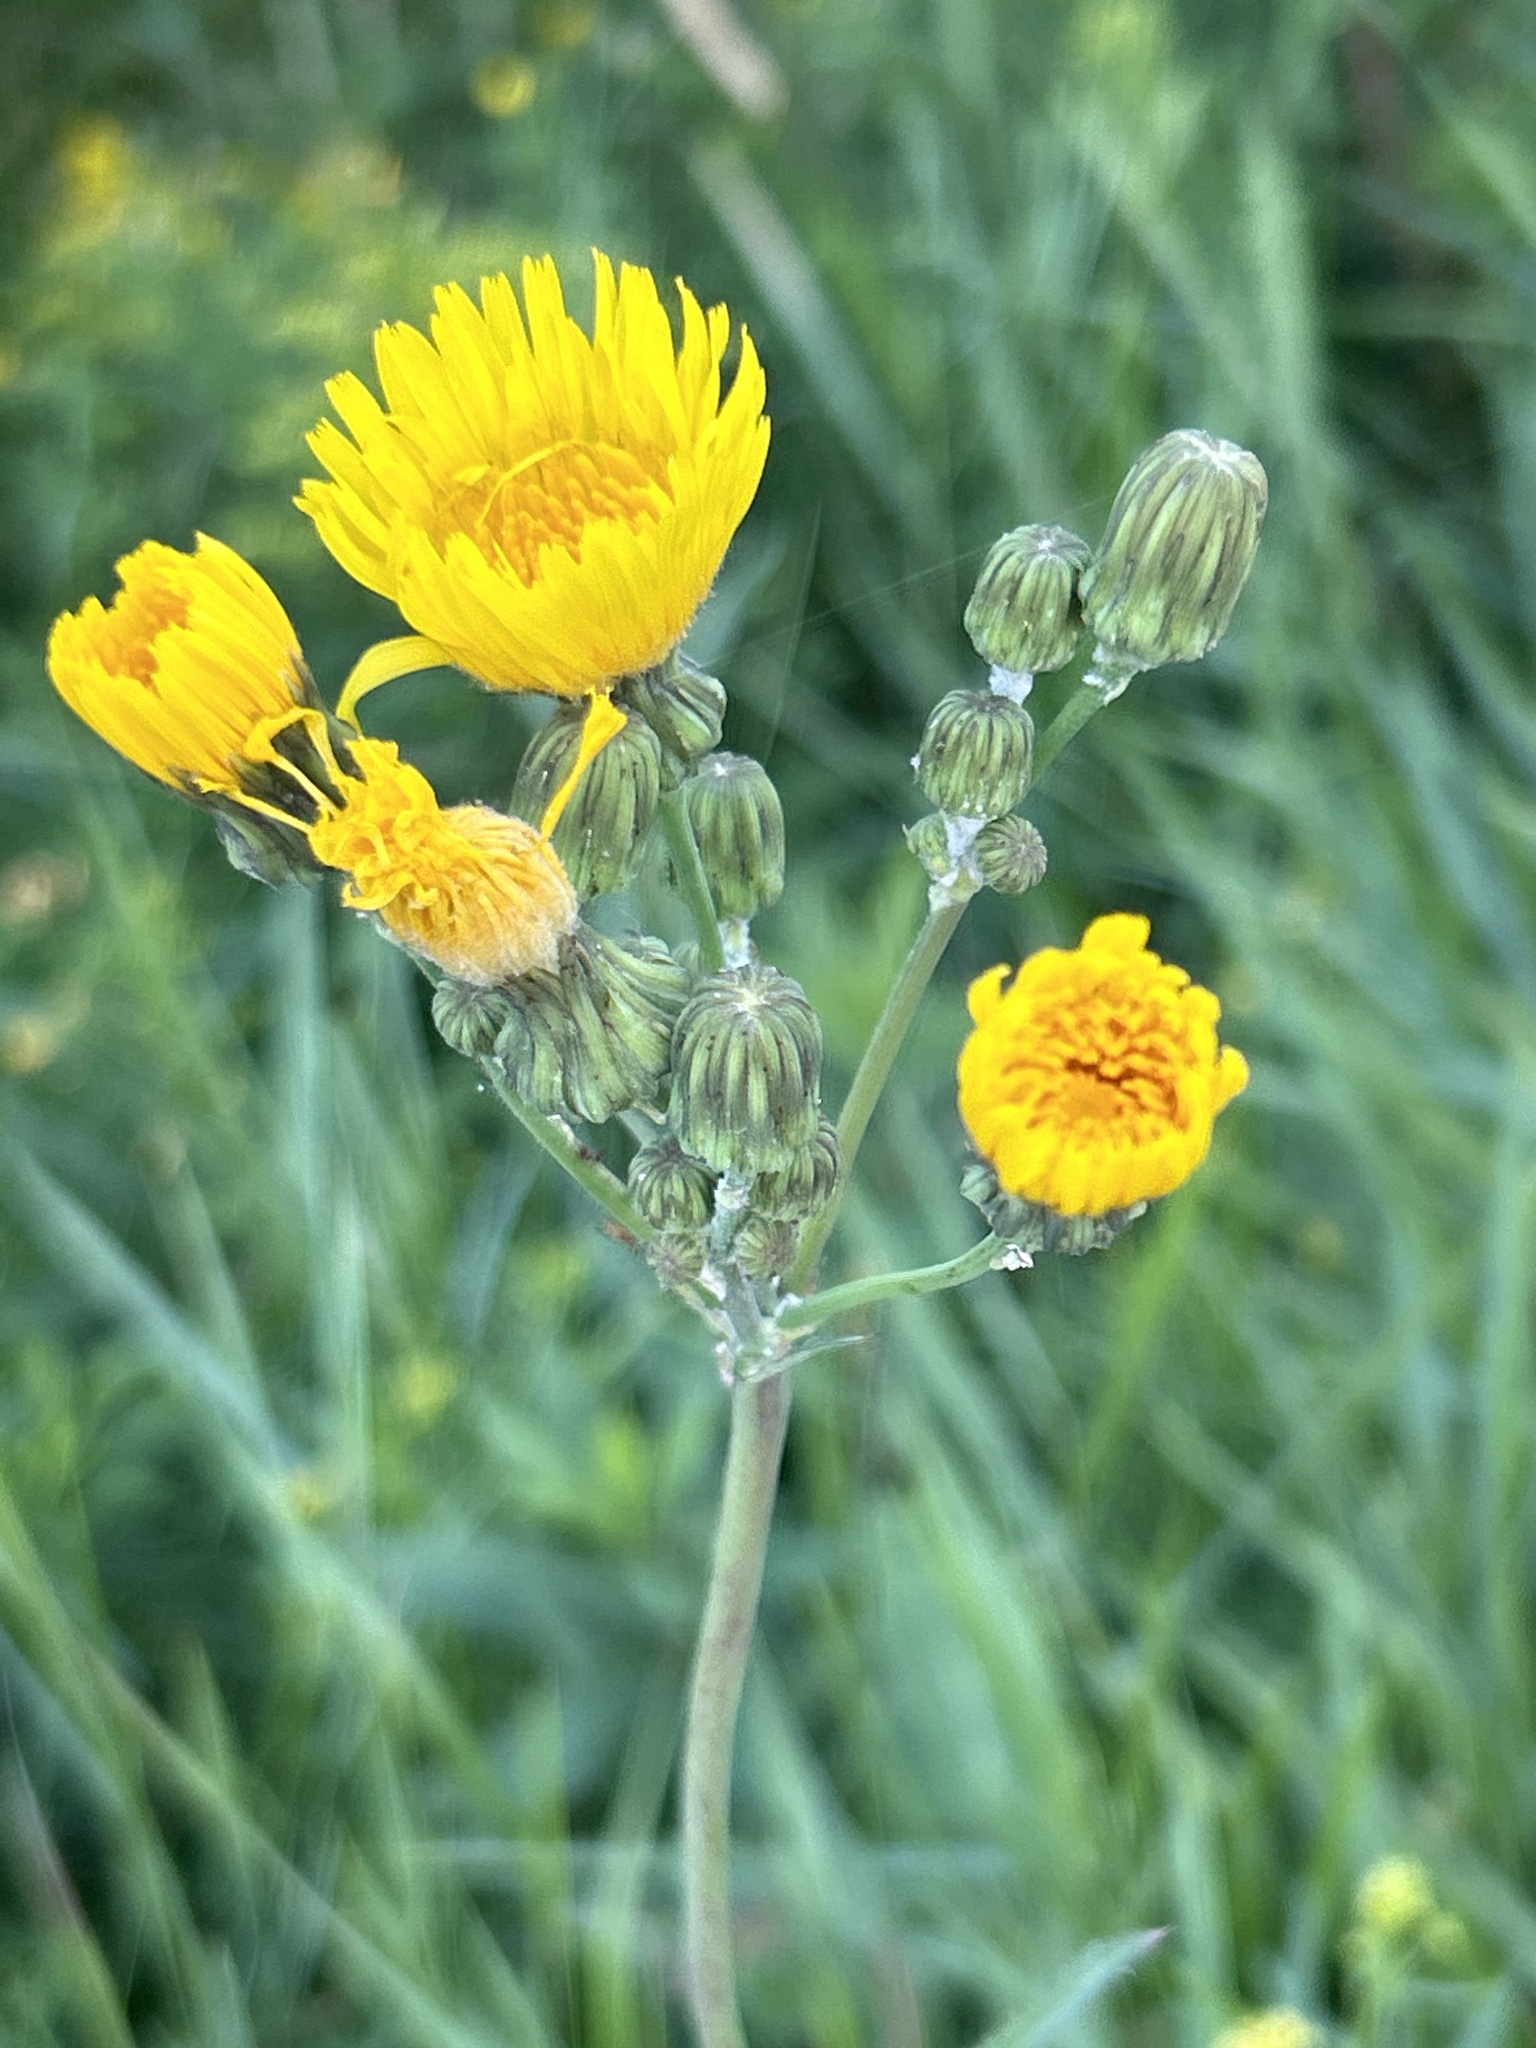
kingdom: Plantae
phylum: Tracheophyta
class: Magnoliopsida
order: Asterales
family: Asteraceae
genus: Sonchus
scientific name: Sonchus arvensis
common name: Perennial sow-thistle
